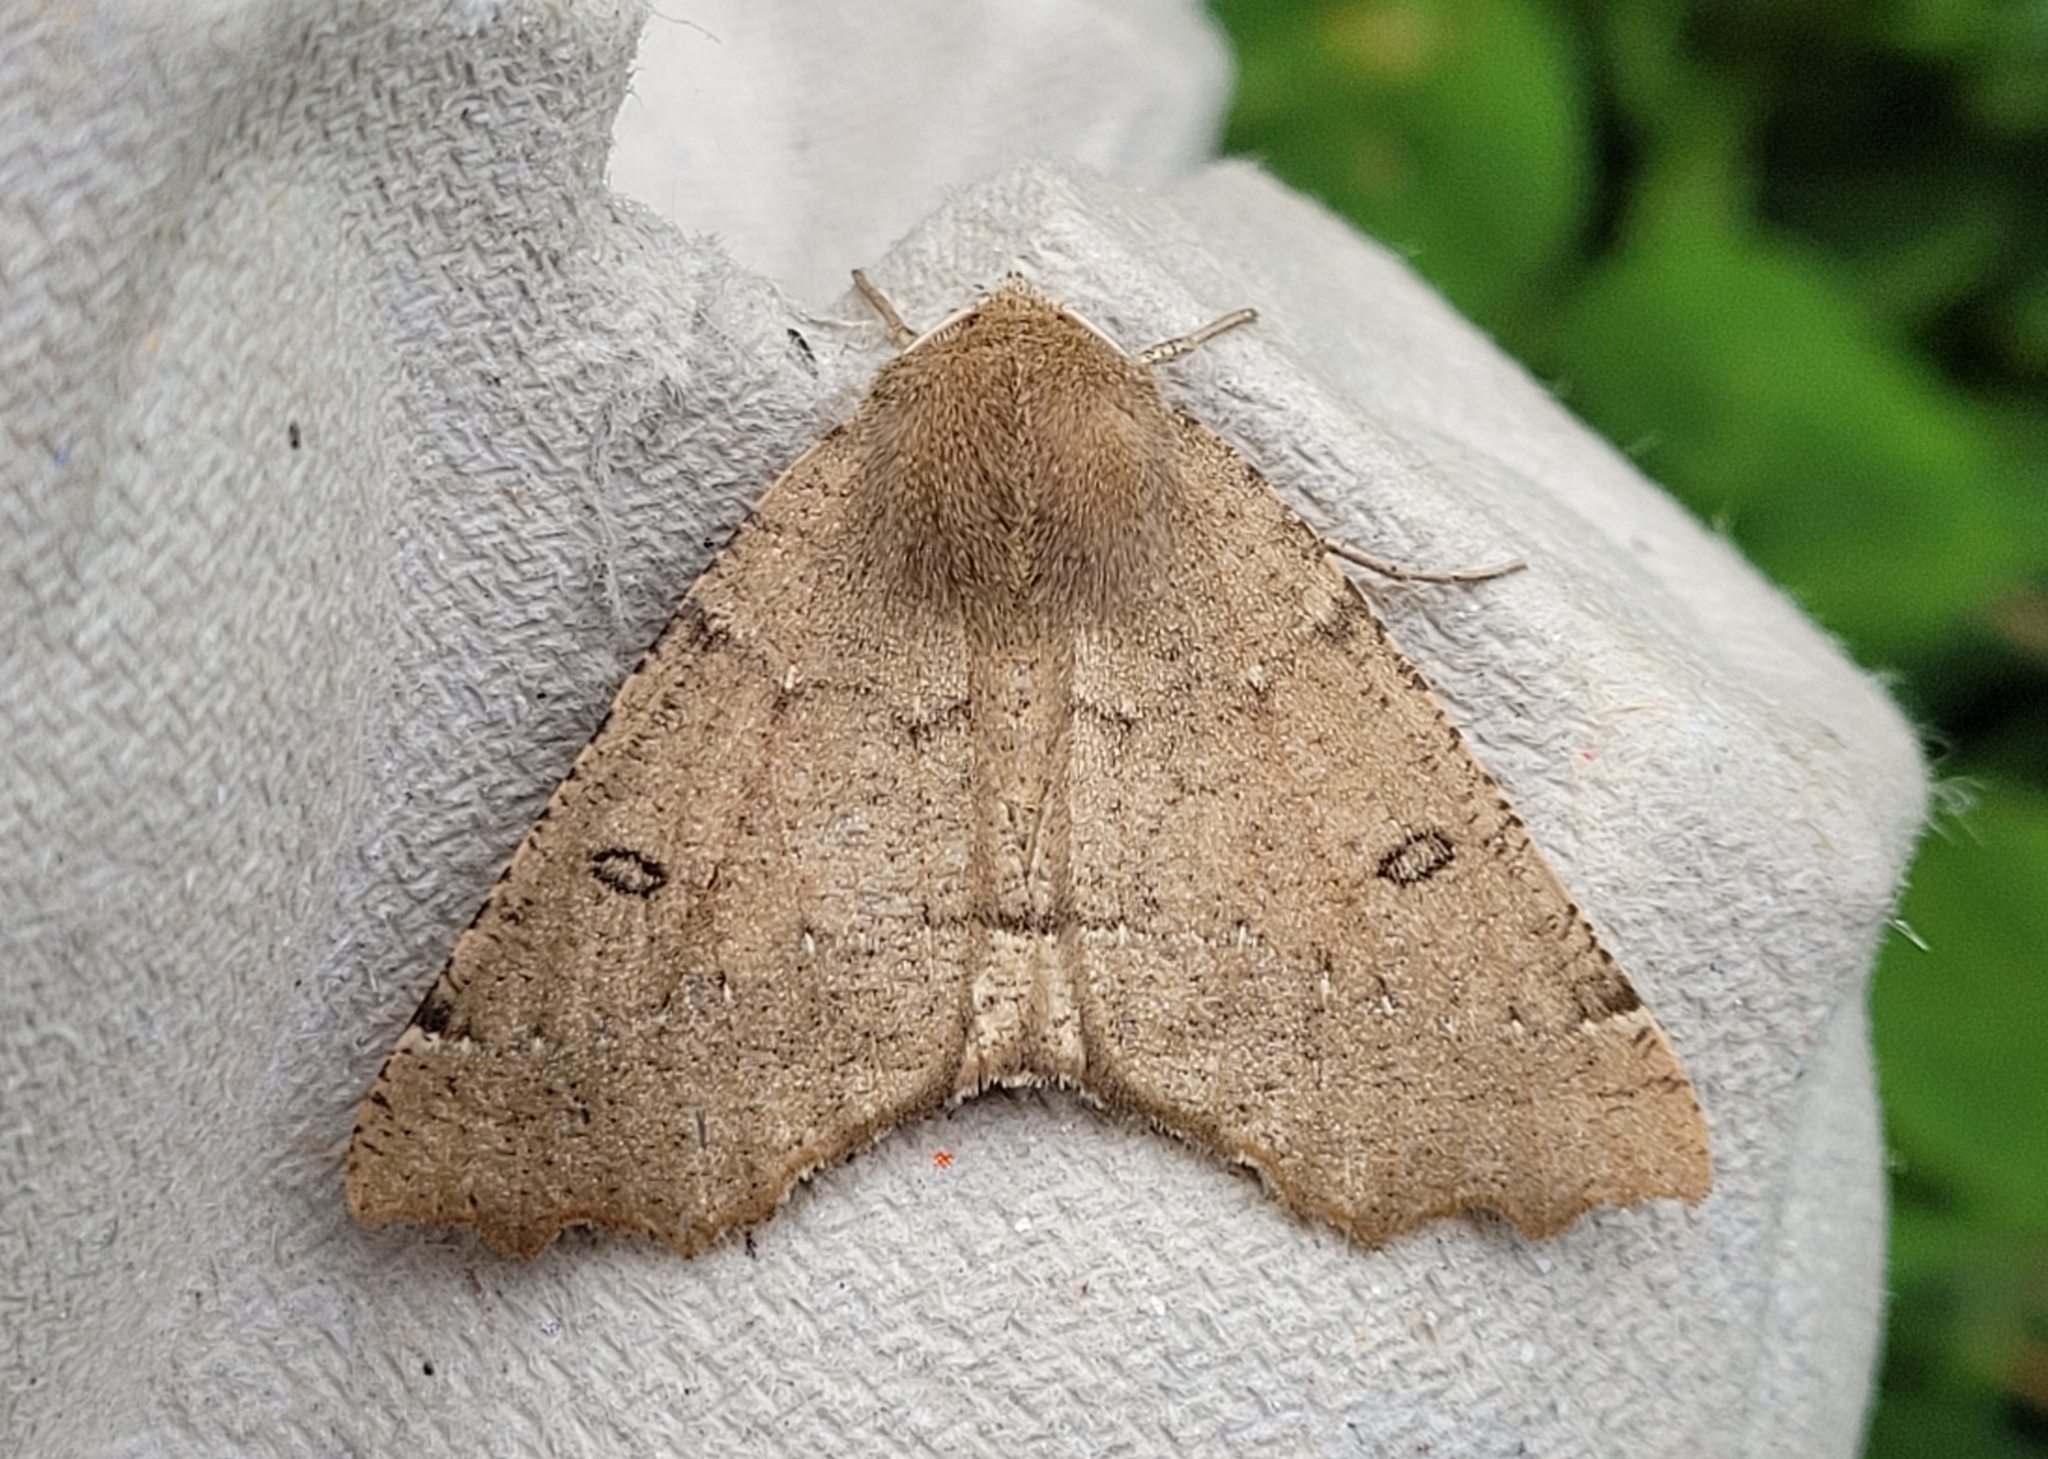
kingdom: Animalia
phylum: Arthropoda
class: Insecta
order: Lepidoptera
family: Geometridae
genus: Odontopera
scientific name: Odontopera bidentata
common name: Scalloped hazel
